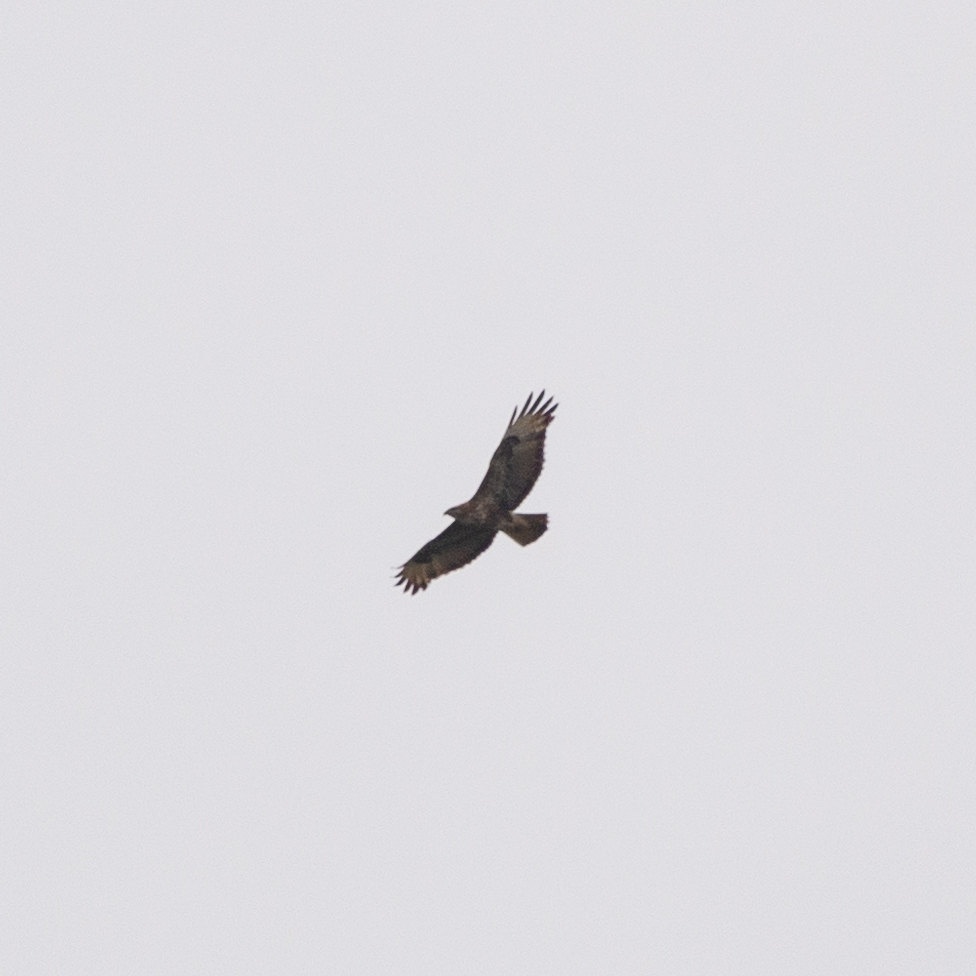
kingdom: Animalia
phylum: Chordata
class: Aves
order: Accipitriformes
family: Accipitridae
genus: Buteo
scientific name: Buteo buteo
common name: Common buzzard
